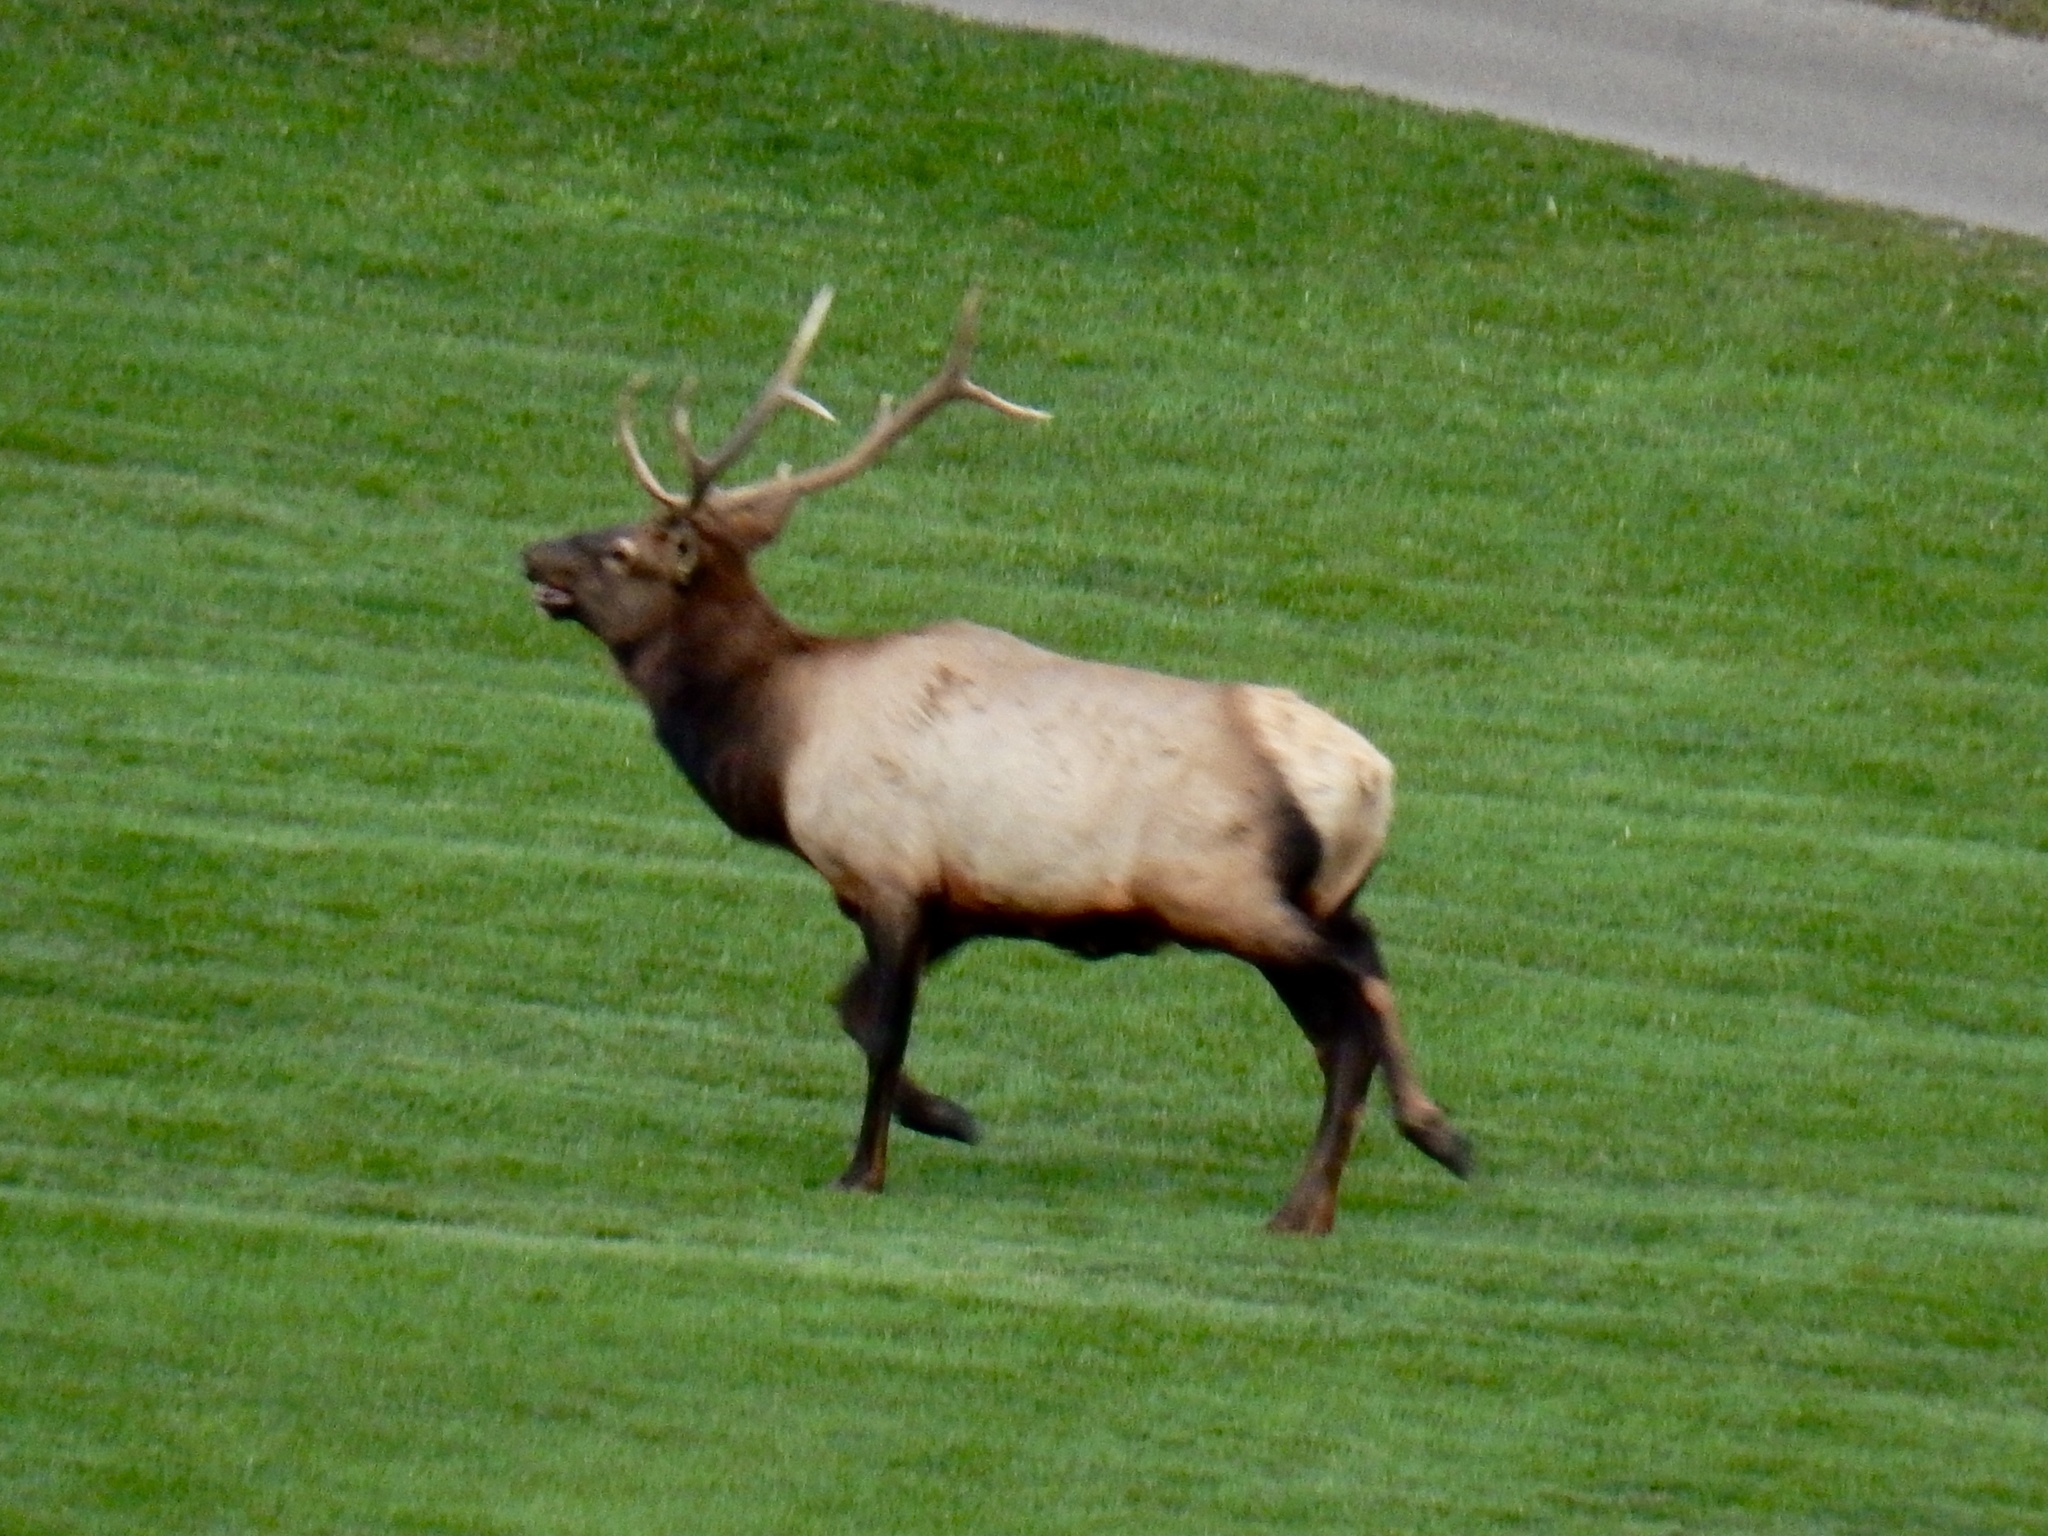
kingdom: Animalia
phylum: Chordata
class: Mammalia
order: Artiodactyla
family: Cervidae
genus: Cervus
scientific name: Cervus elaphus
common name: Red deer
